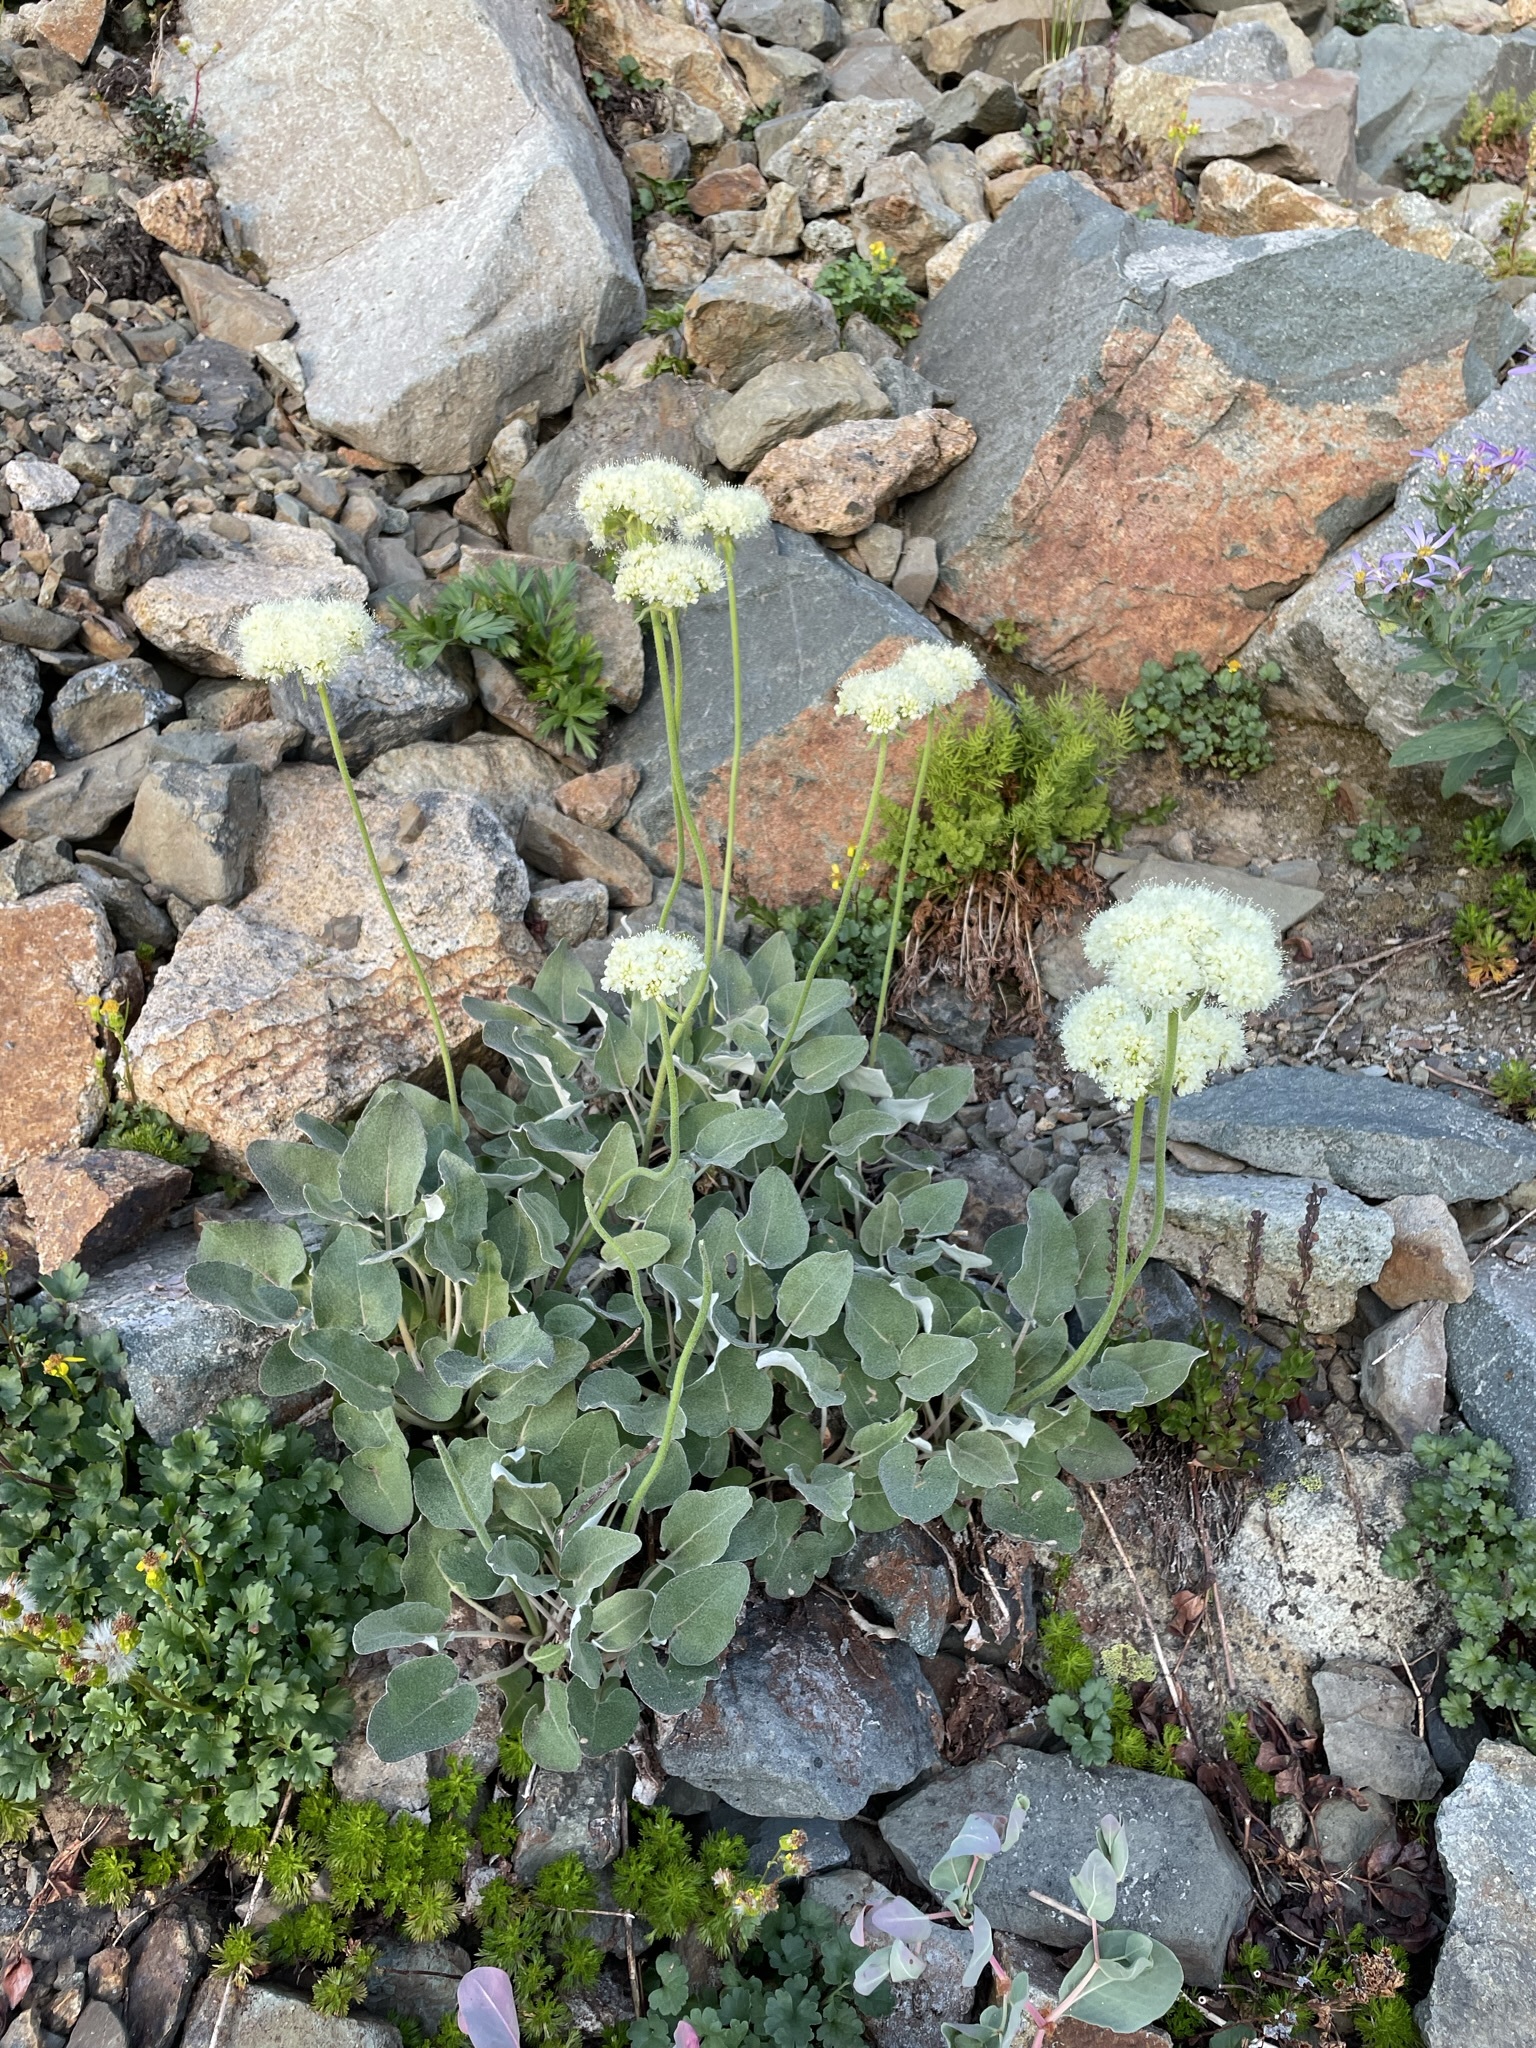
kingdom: Plantae
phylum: Tracheophyta
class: Magnoliopsida
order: Caryophyllales
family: Polygonaceae
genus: Eriogonum
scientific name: Eriogonum compositum
